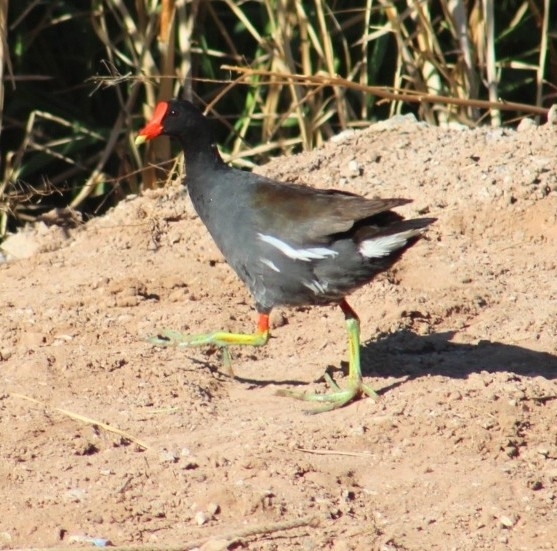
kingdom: Animalia
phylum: Chordata
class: Aves
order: Gruiformes
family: Rallidae
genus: Gallinula
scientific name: Gallinula chloropus
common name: Common moorhen
